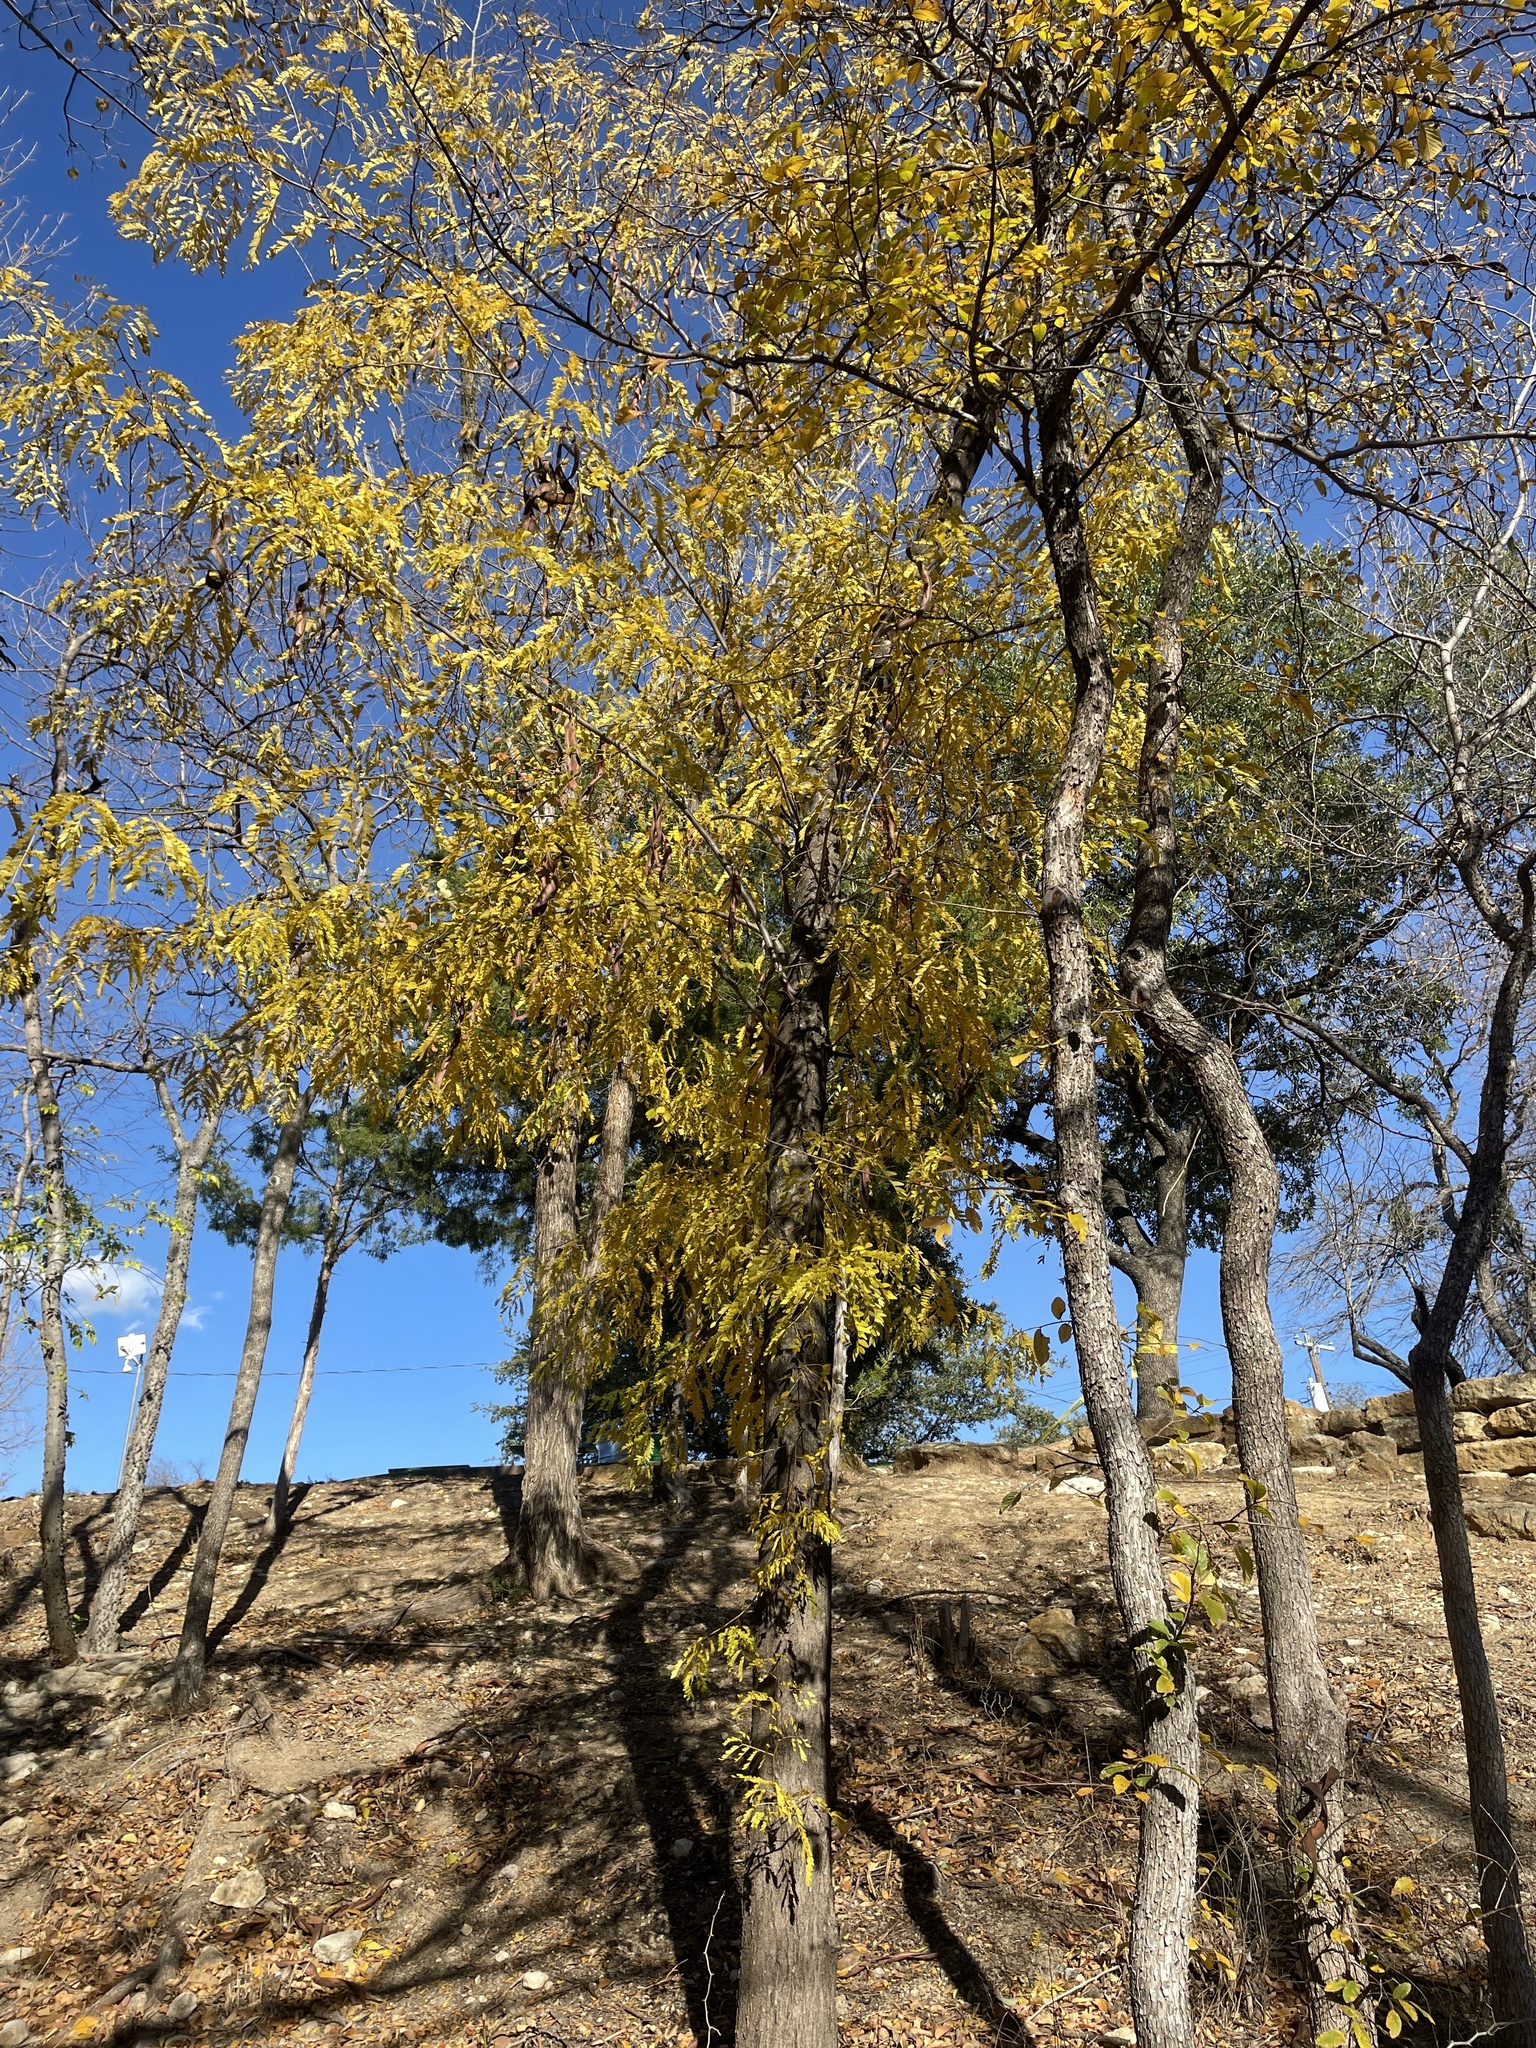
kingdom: Plantae
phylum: Tracheophyta
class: Magnoliopsida
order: Fabales
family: Fabaceae
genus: Gleditsia
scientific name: Gleditsia triacanthos
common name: Common honeylocust
